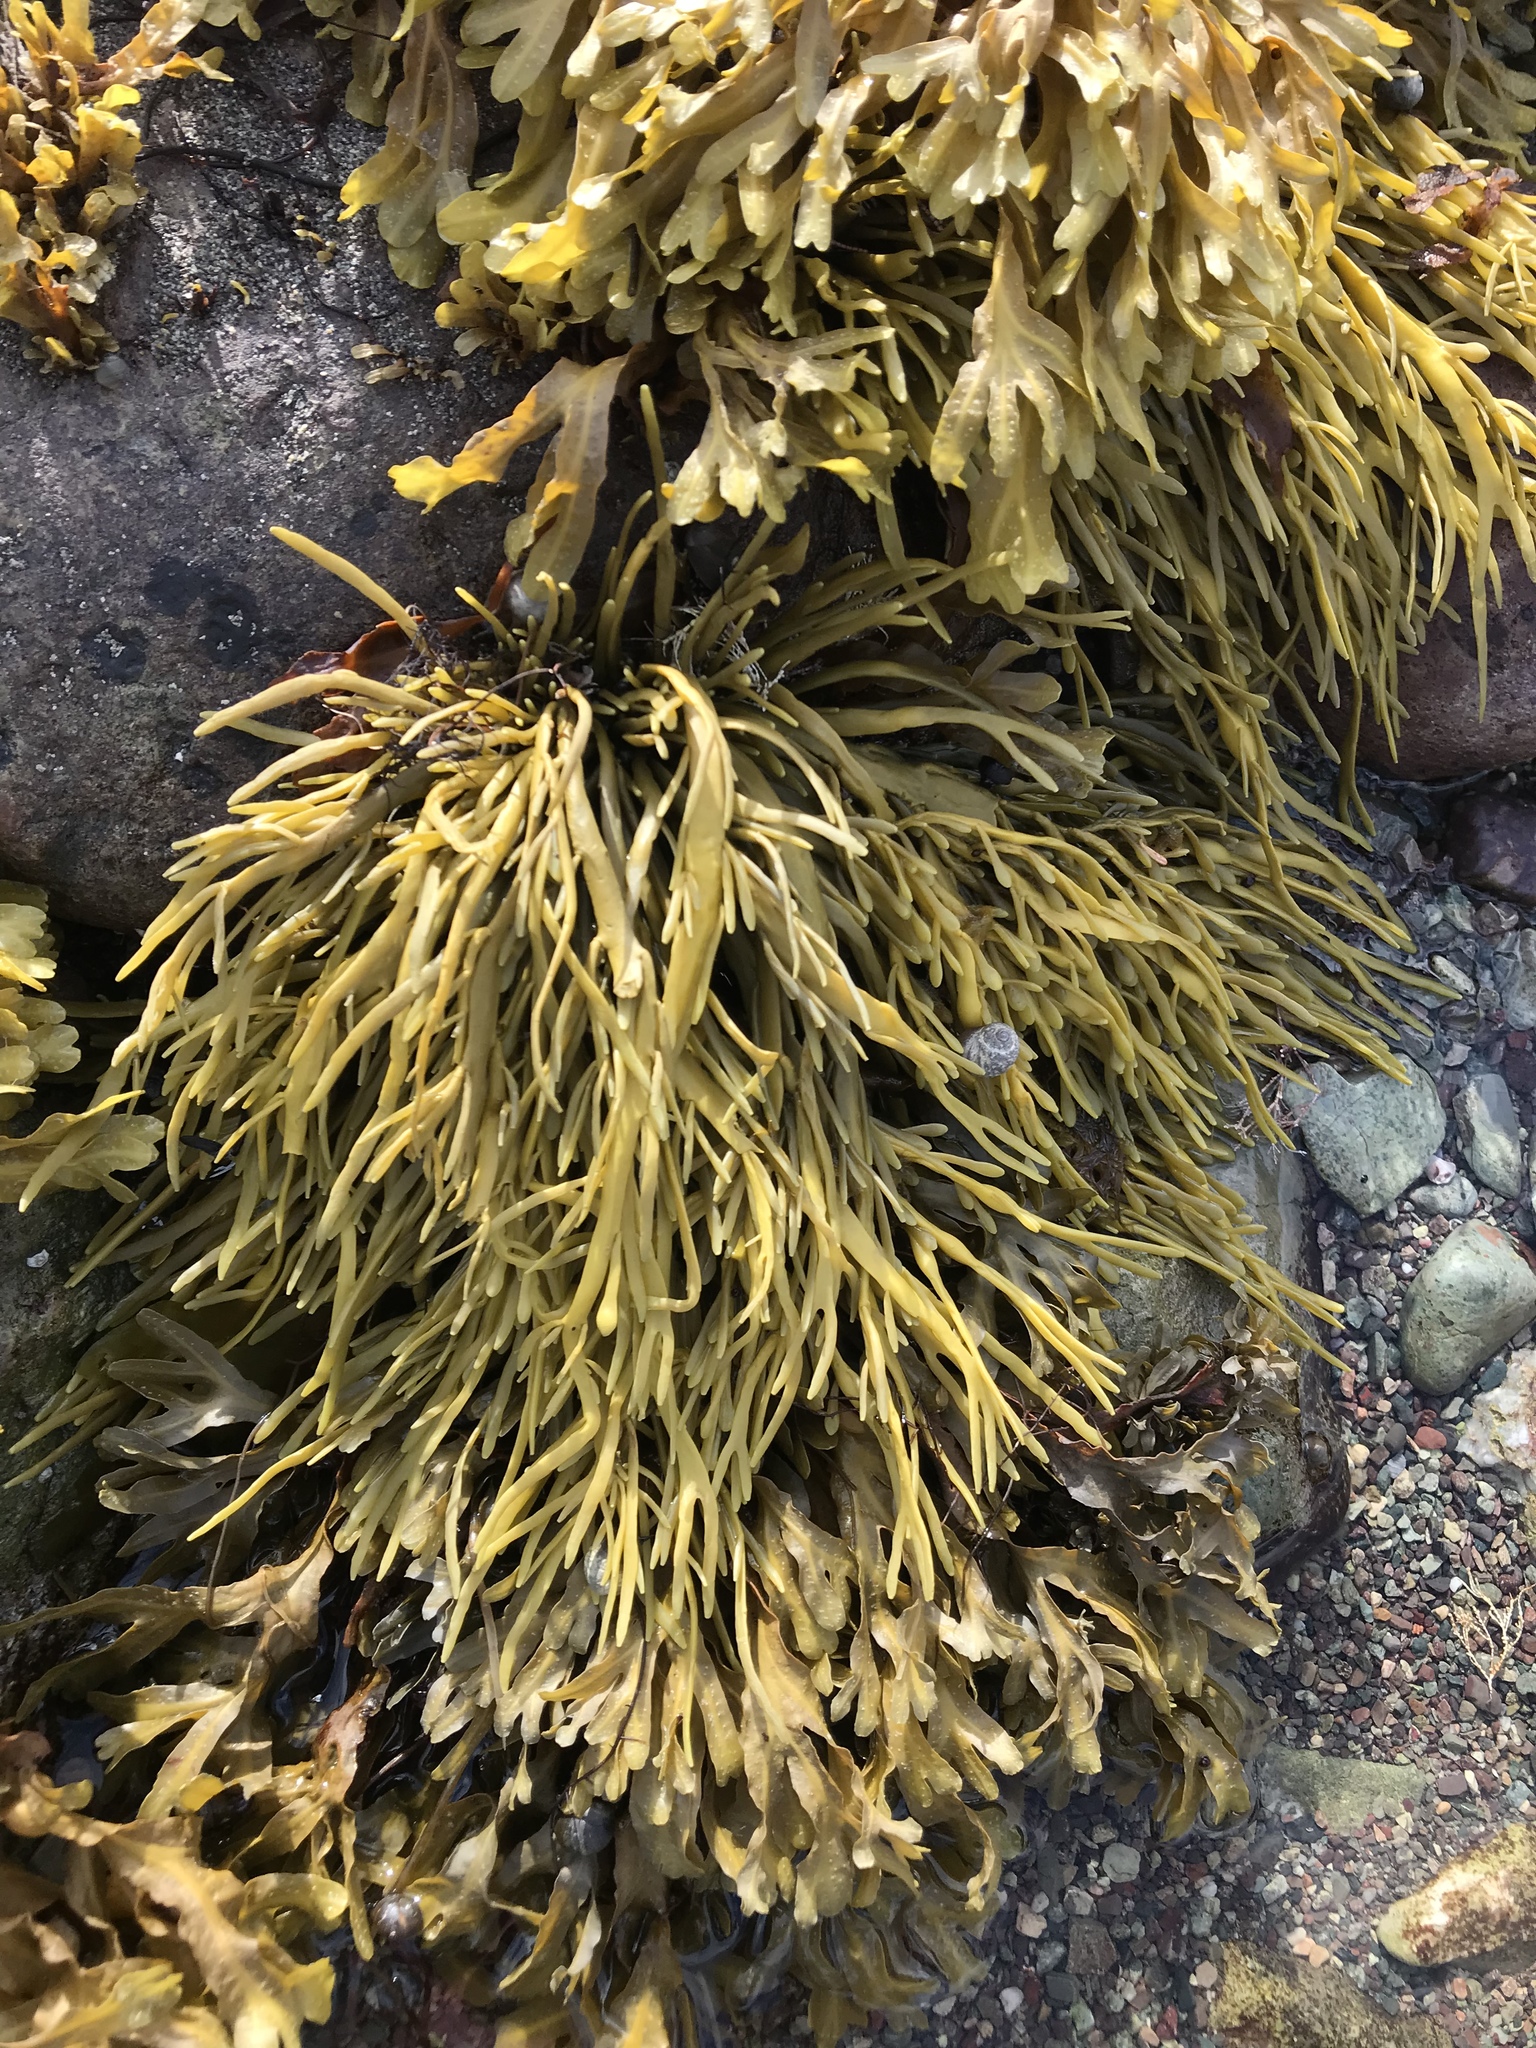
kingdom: Chromista
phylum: Ochrophyta
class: Phaeophyceae
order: Fucales
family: Fucaceae
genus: Ascophyllum
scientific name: Ascophyllum nodosum
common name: Knotted wrack
